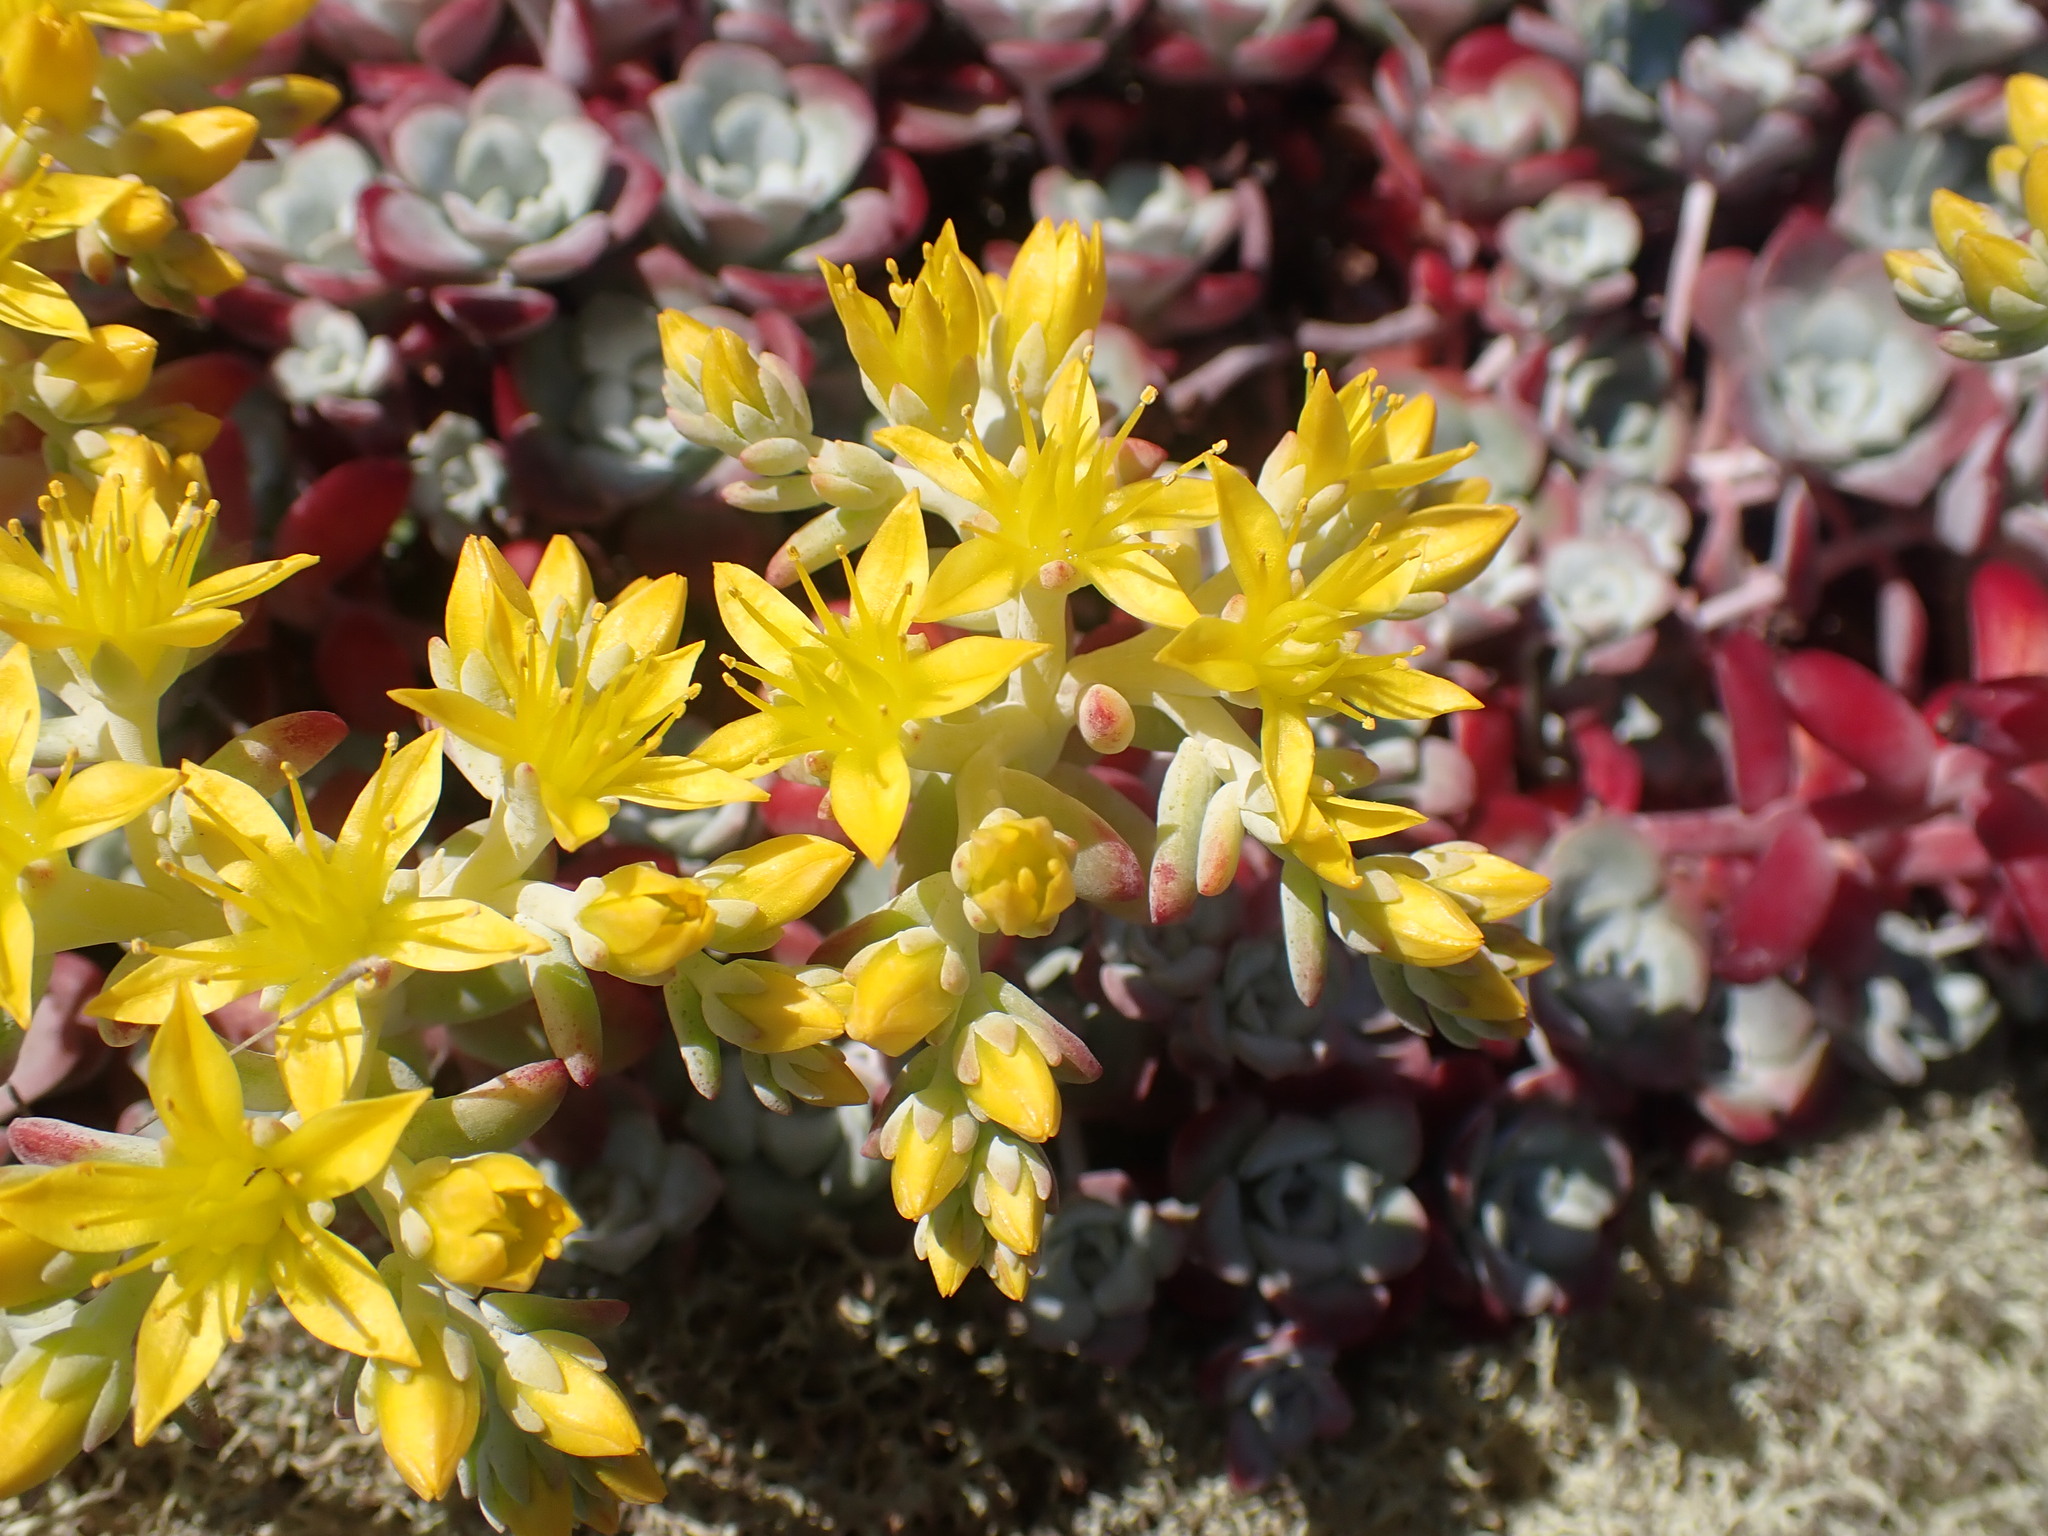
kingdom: Plantae
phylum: Tracheophyta
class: Magnoliopsida
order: Saxifragales
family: Crassulaceae
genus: Sedum
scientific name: Sedum spathulifolium
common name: Colorado stonecrop
